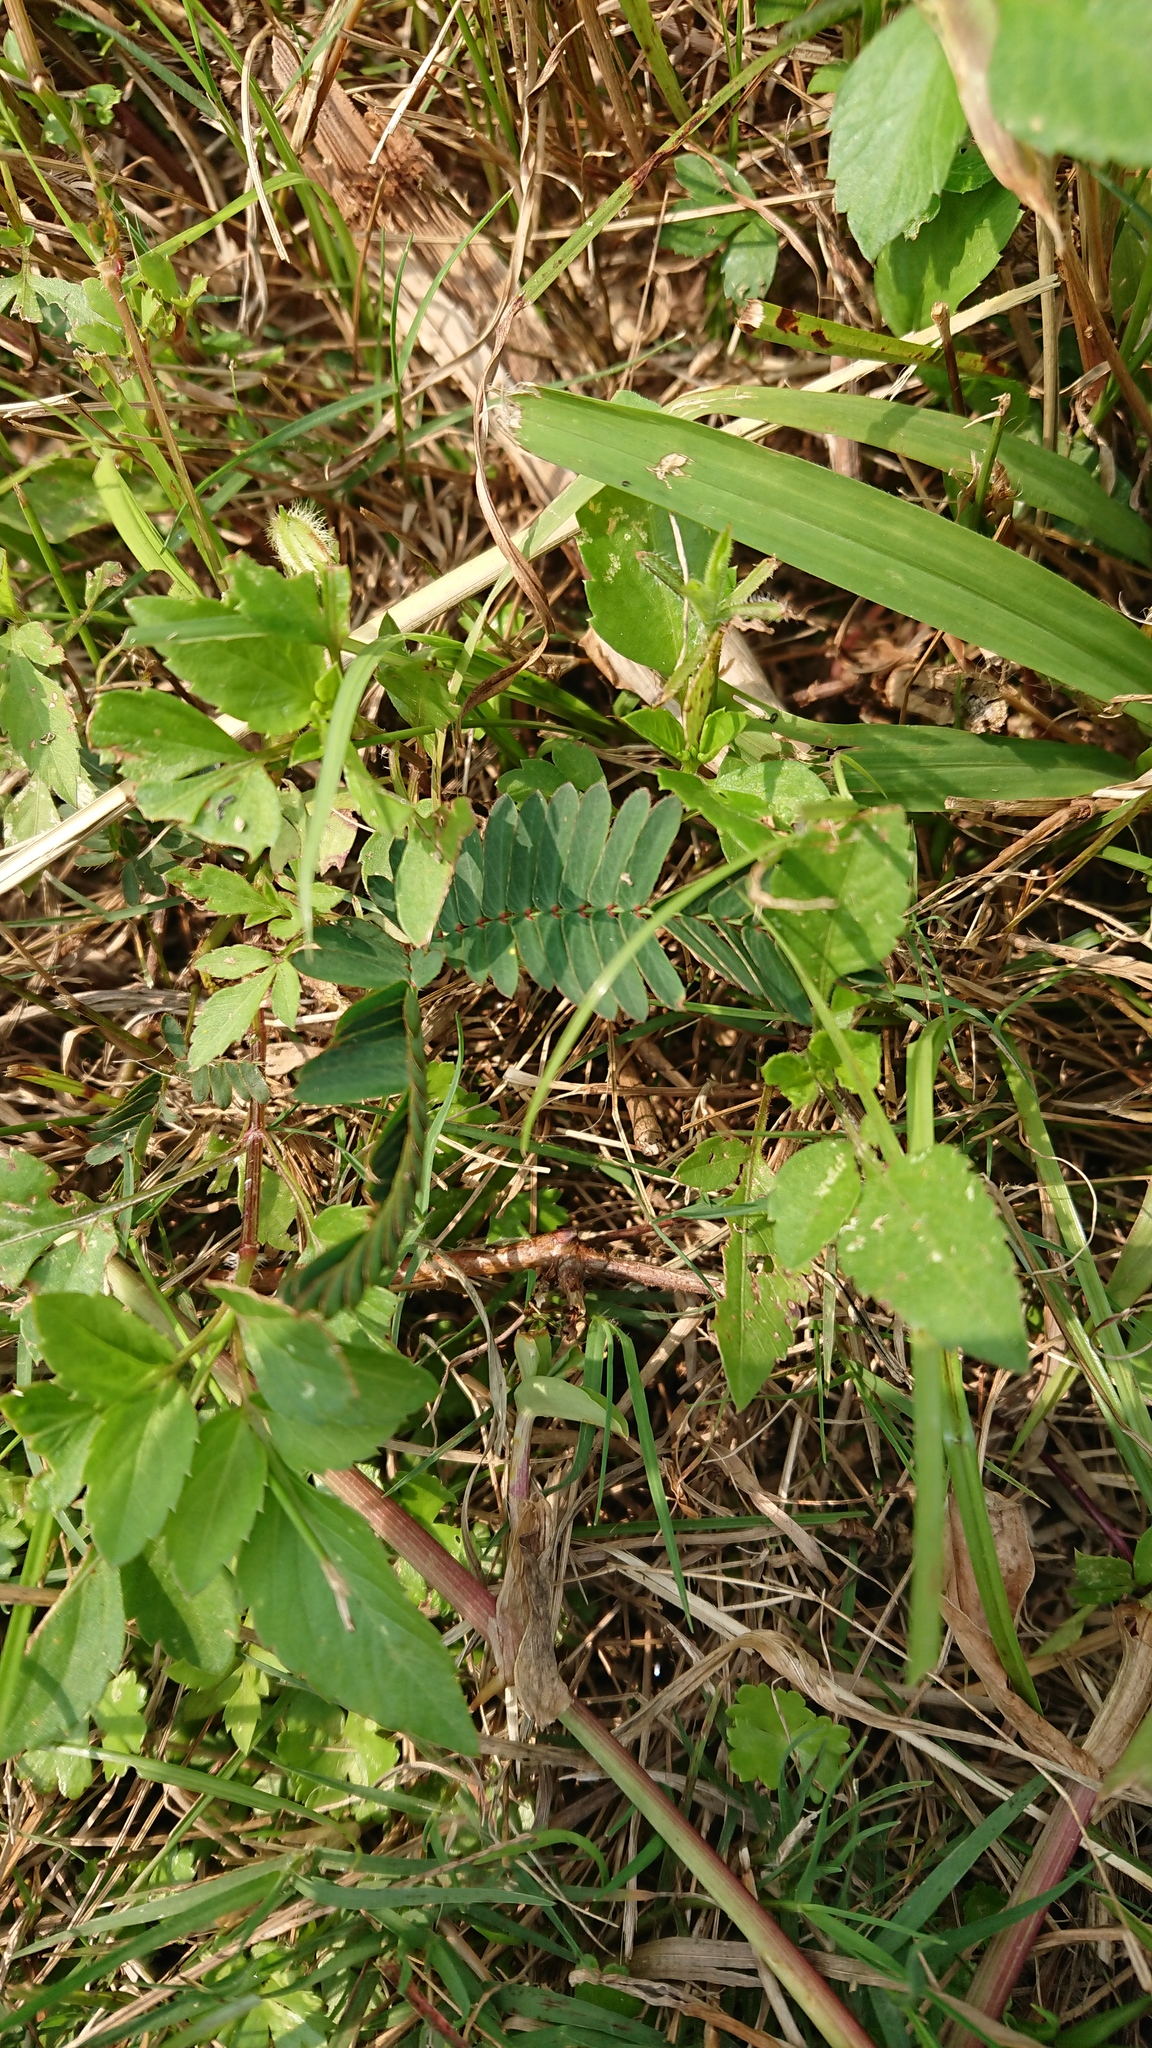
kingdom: Plantae
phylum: Tracheophyta
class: Magnoliopsida
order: Fabales
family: Fabaceae
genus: Mimosa
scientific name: Mimosa pudica
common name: Sensitive plant
